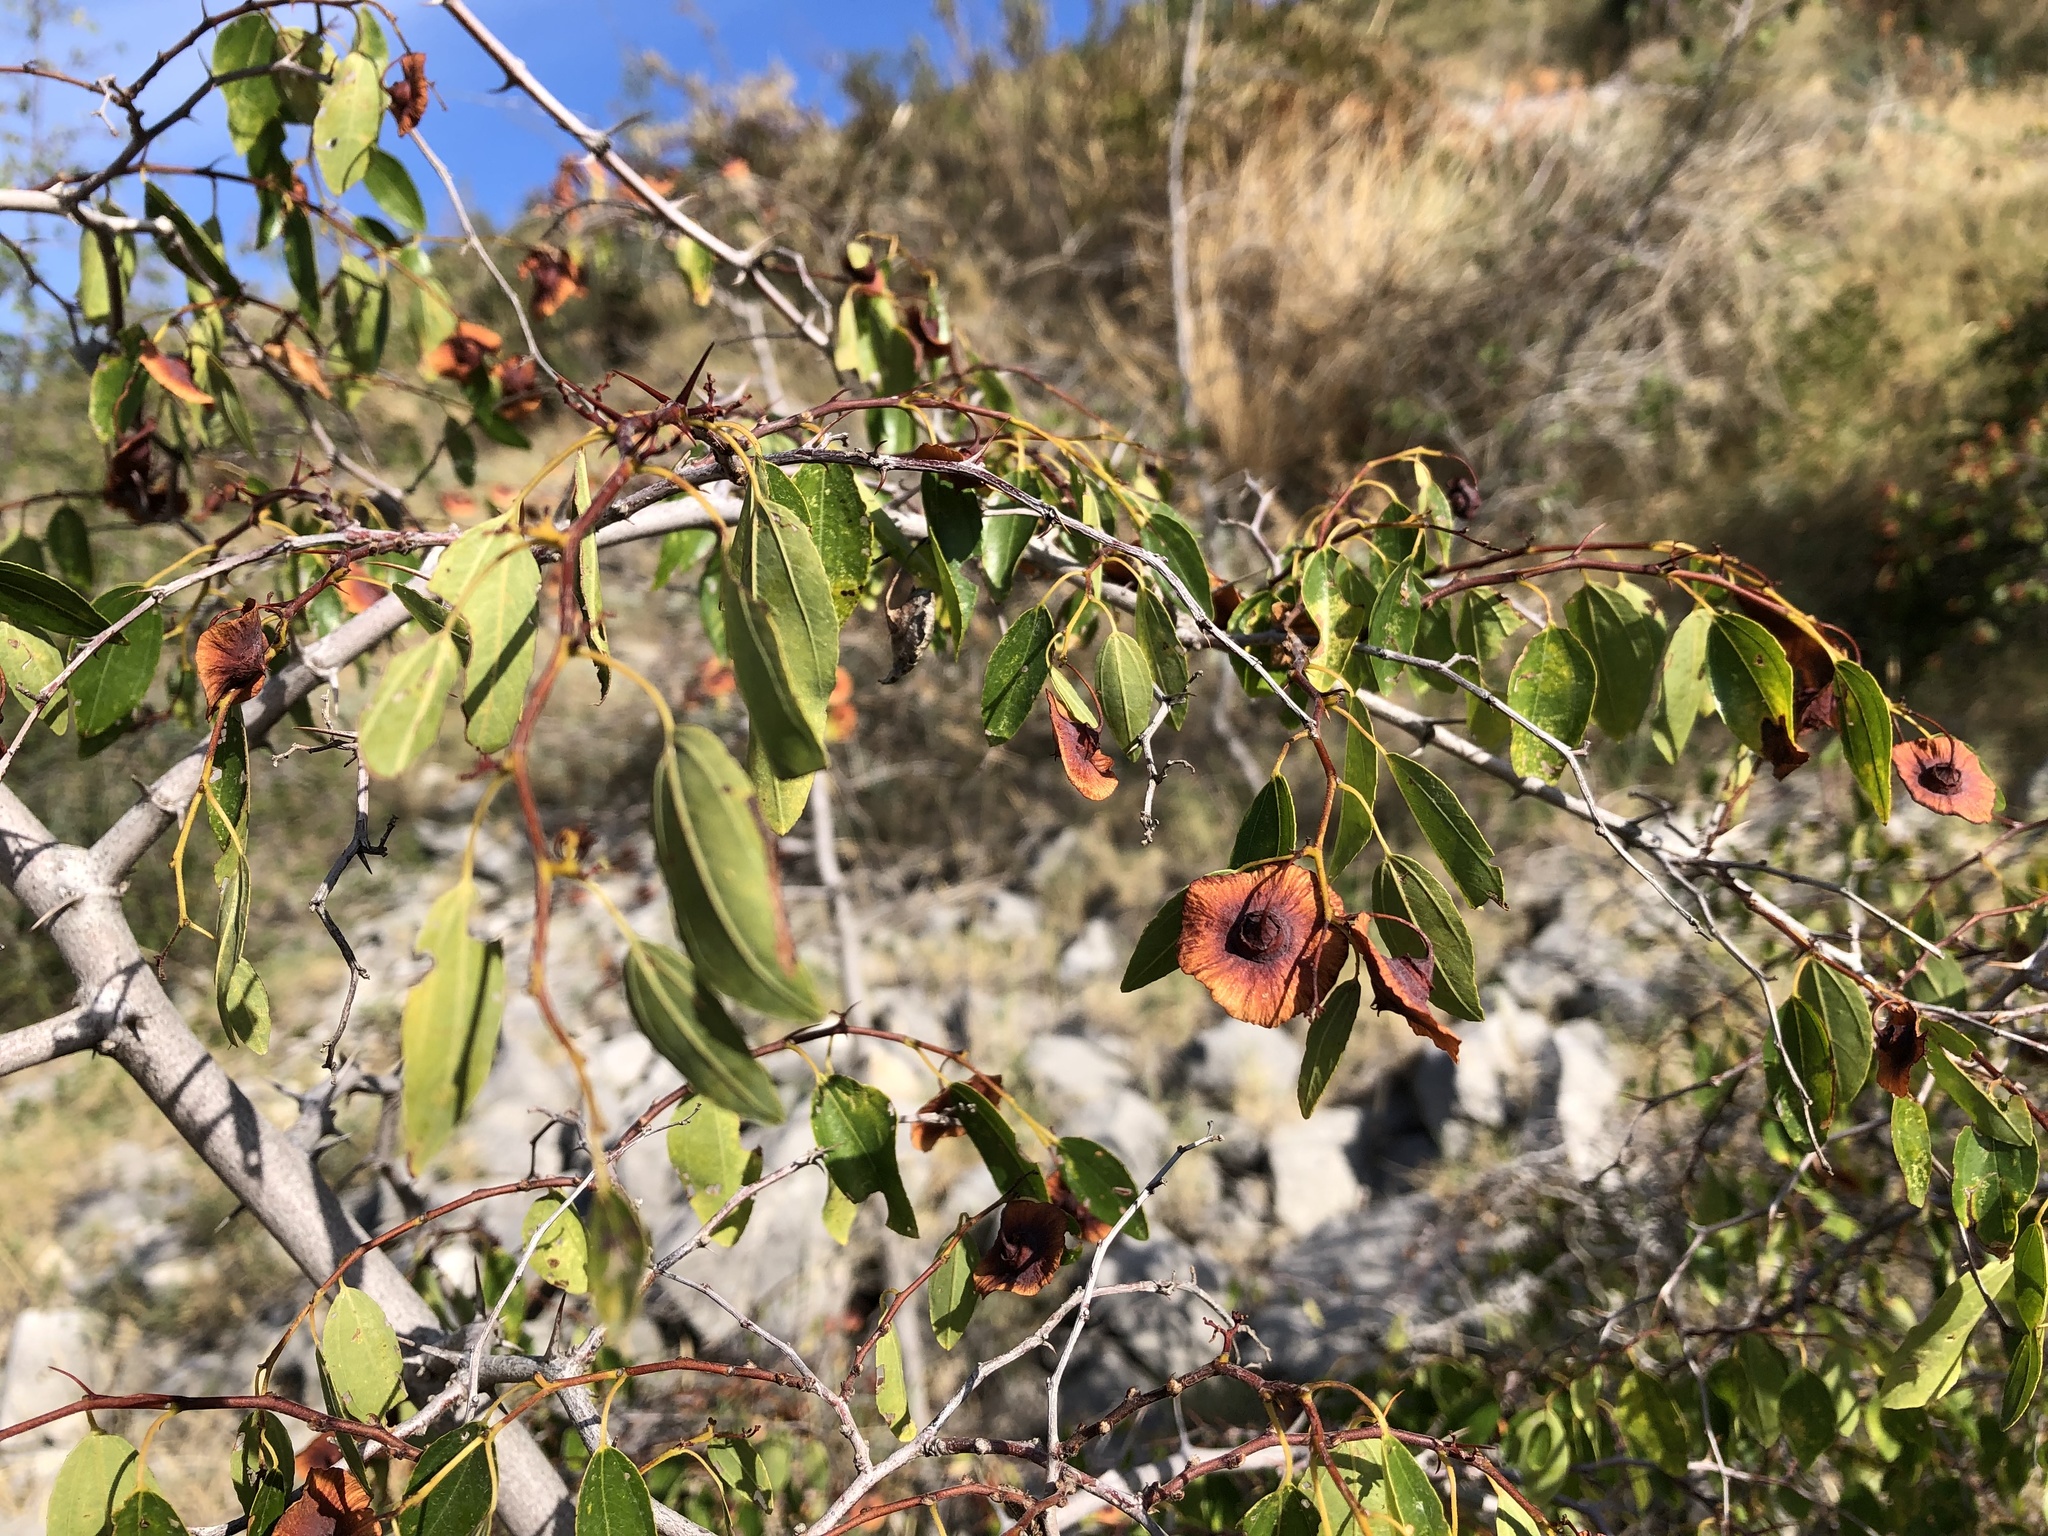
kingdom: Plantae
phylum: Tracheophyta
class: Magnoliopsida
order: Rosales
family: Rhamnaceae
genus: Paliurus
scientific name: Paliurus spina-christi
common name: Jeruselem thorn
